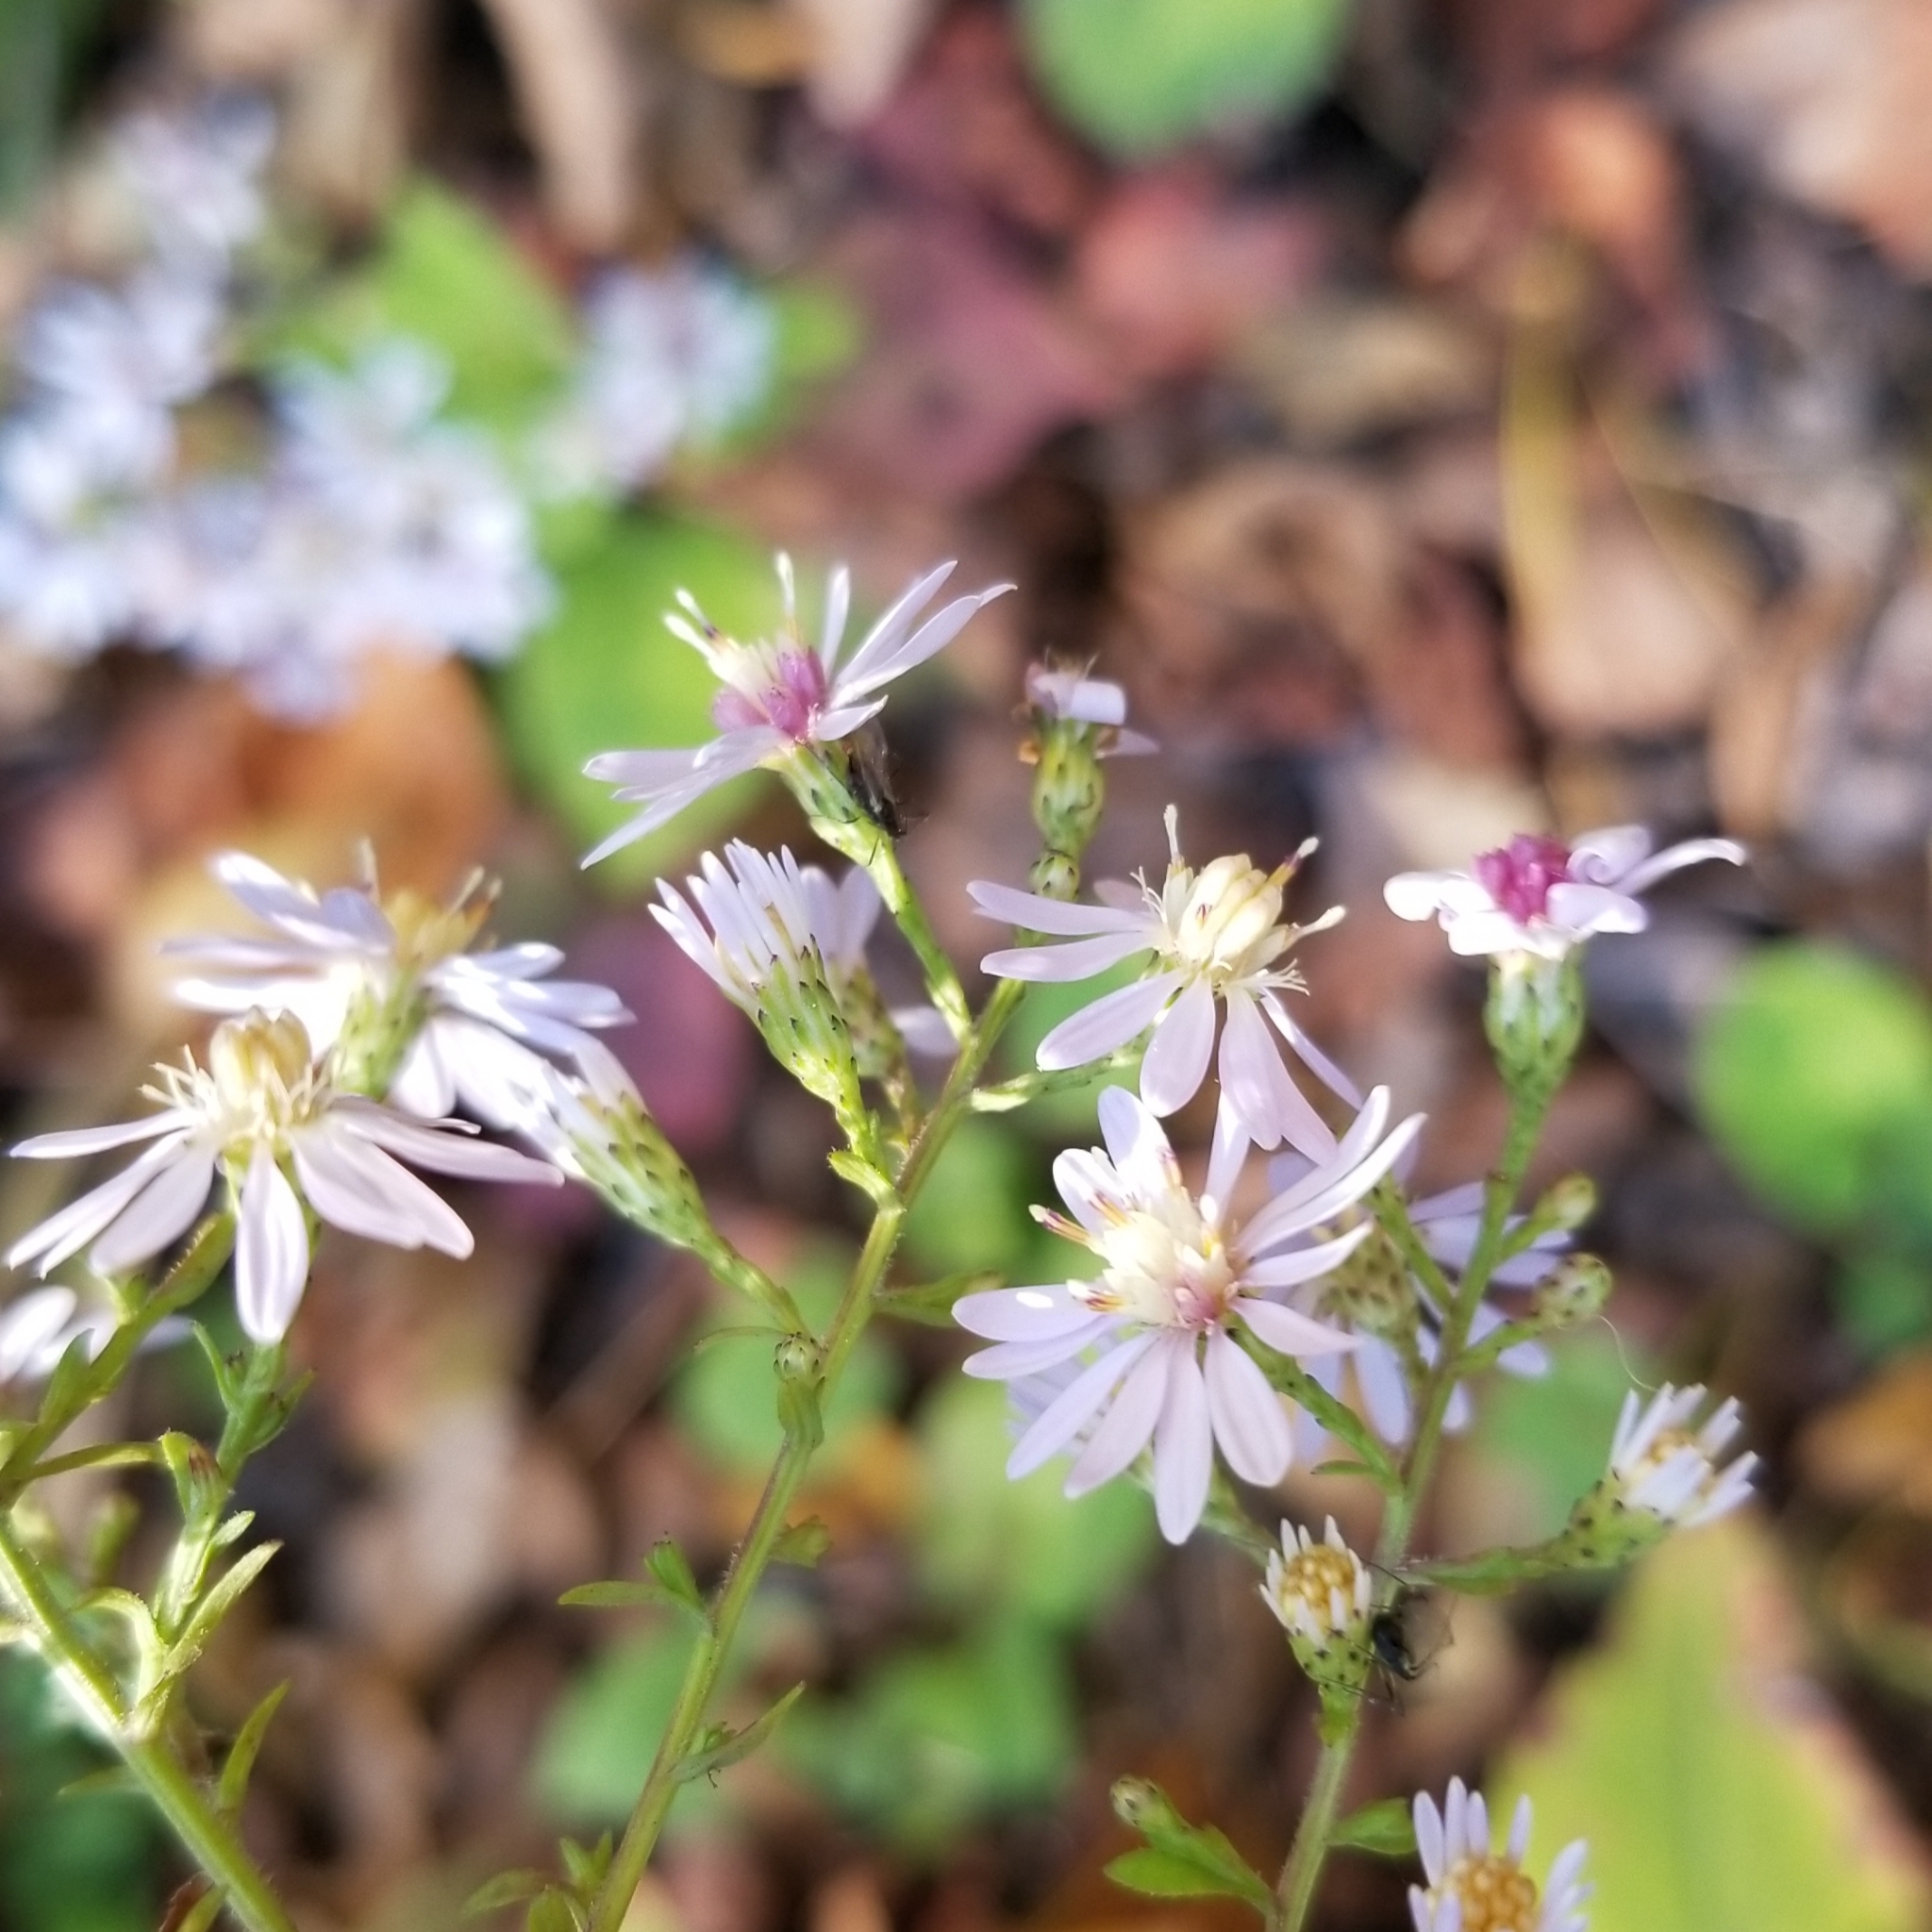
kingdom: Plantae
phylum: Tracheophyta
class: Magnoliopsida
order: Asterales
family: Asteraceae
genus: Symphyotrichum
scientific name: Symphyotrichum cordifolium
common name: Beeweed
